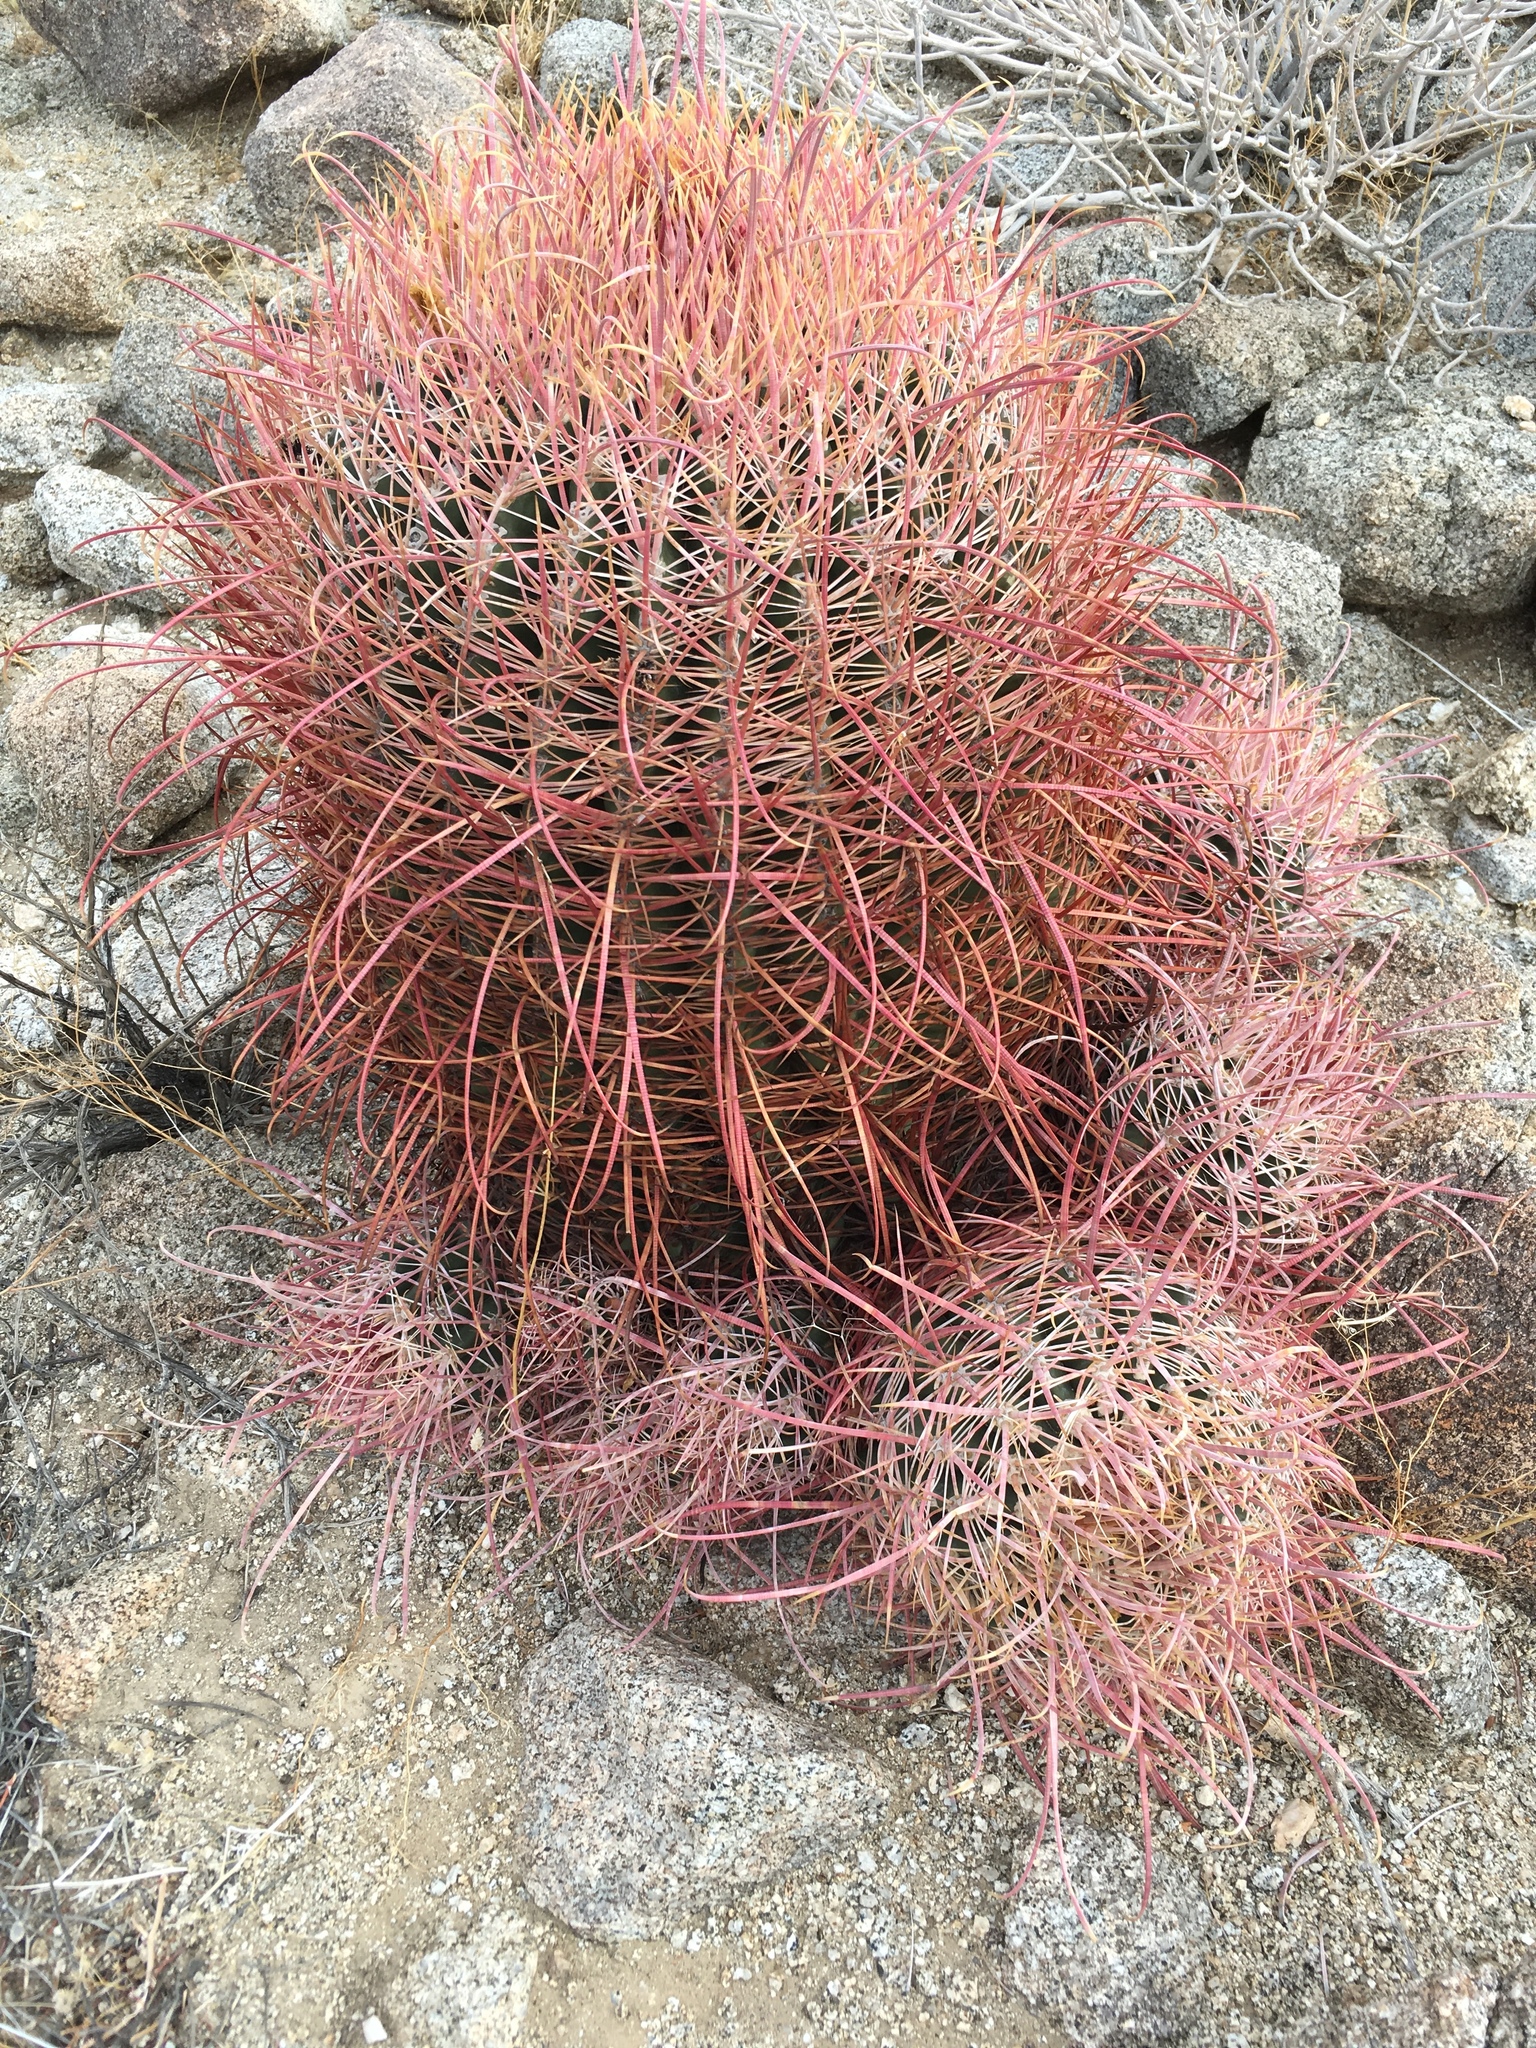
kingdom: Plantae
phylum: Tracheophyta
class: Magnoliopsida
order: Caryophyllales
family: Cactaceae
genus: Ferocactus
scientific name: Ferocactus cylindraceus
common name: California barrel cactus
